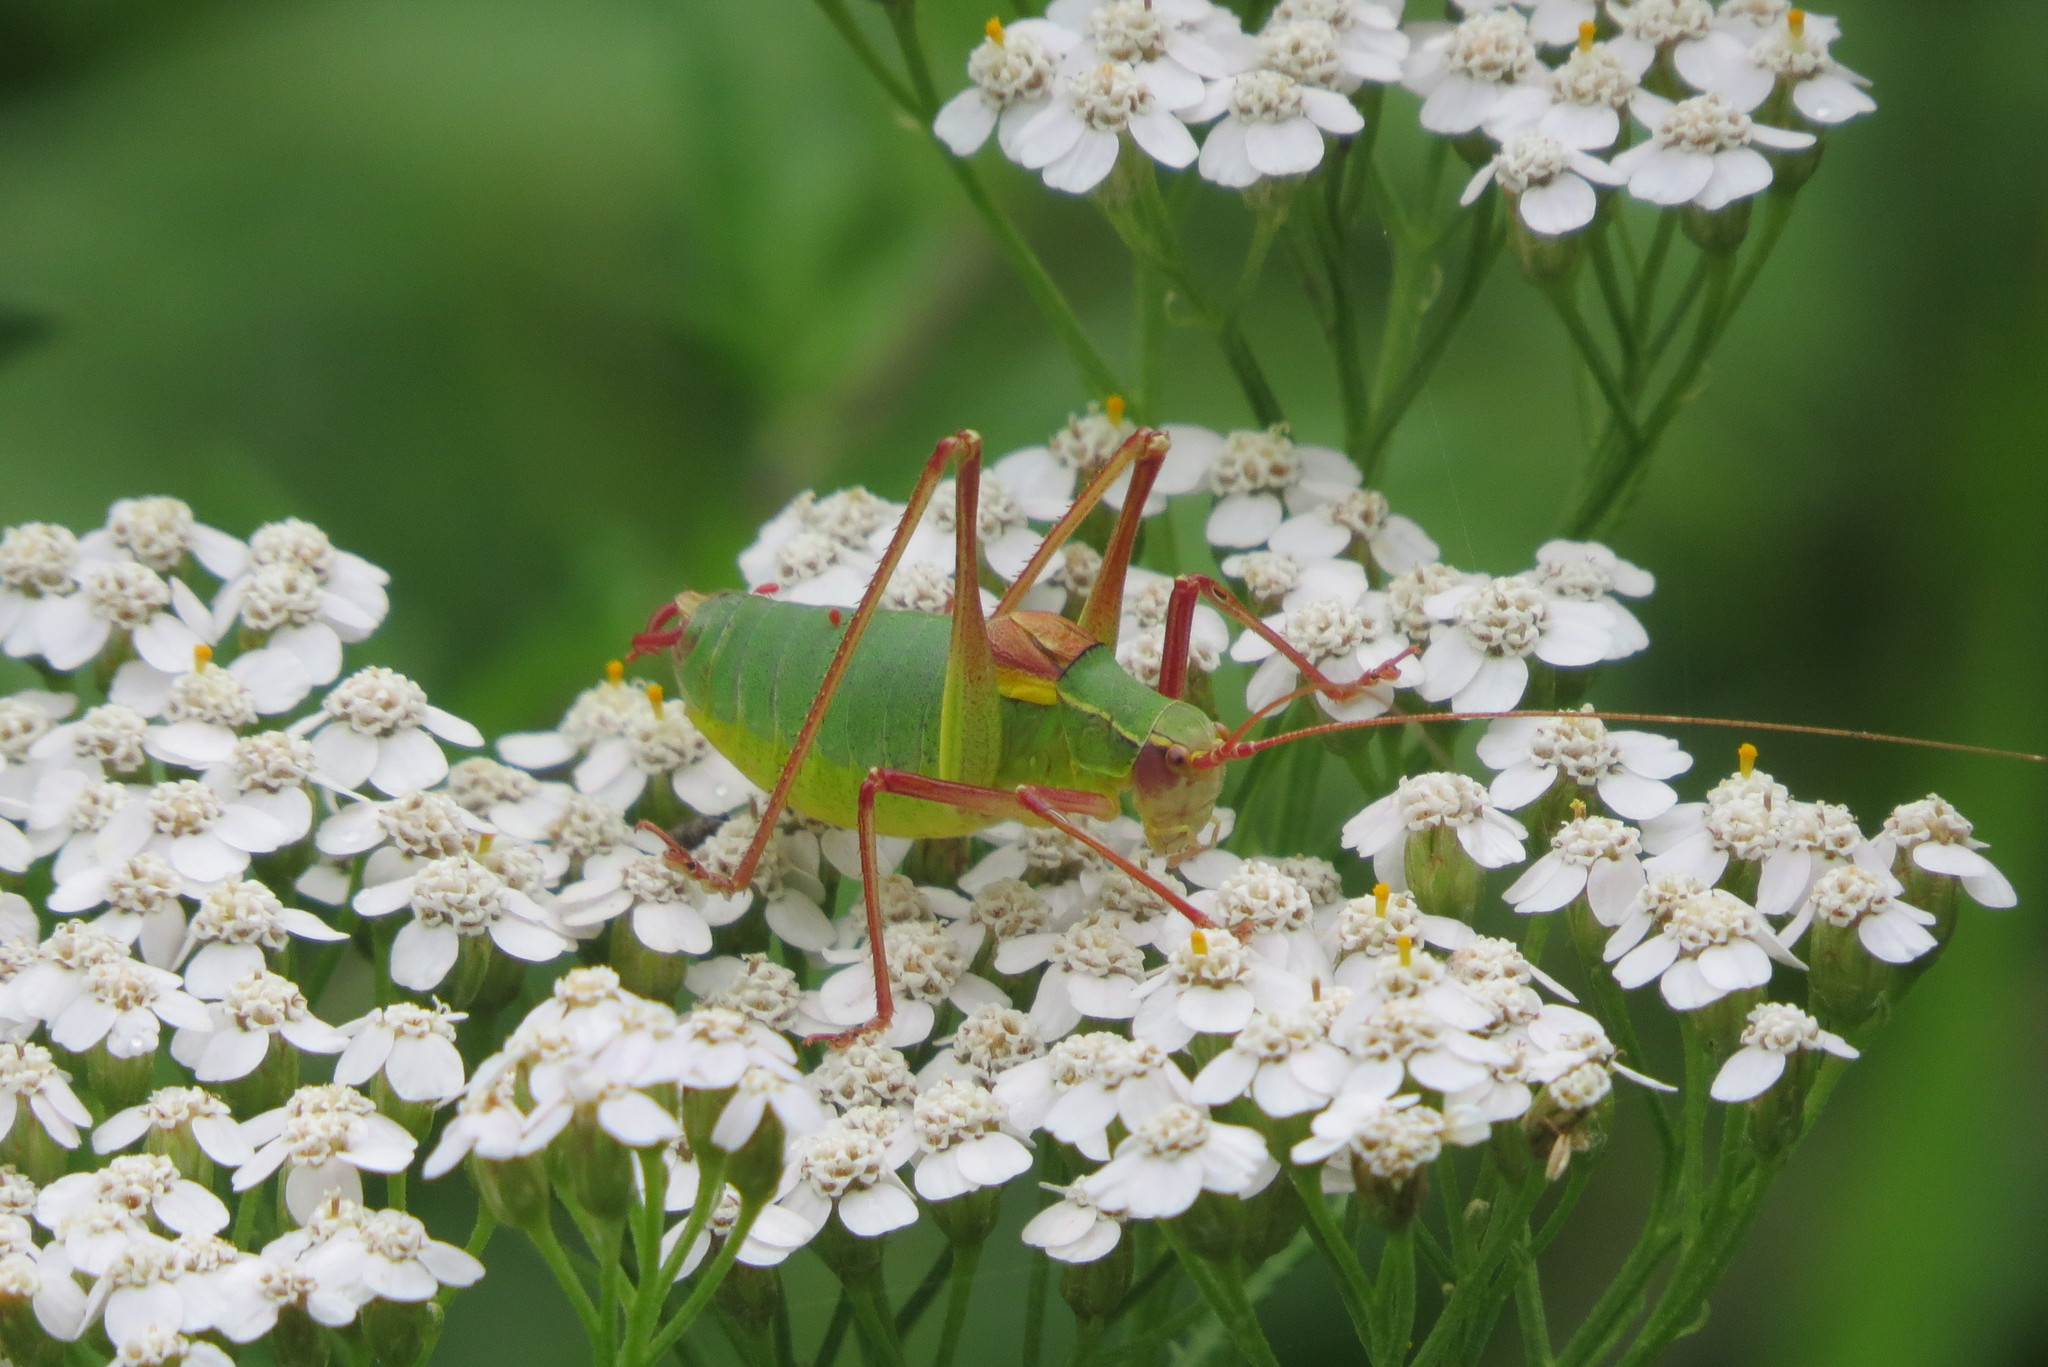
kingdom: Animalia
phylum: Arthropoda
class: Insecta
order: Orthoptera
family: Tettigoniidae
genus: Barbitistes
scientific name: Barbitistes obtusus
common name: Alpine saw bush-cricket
